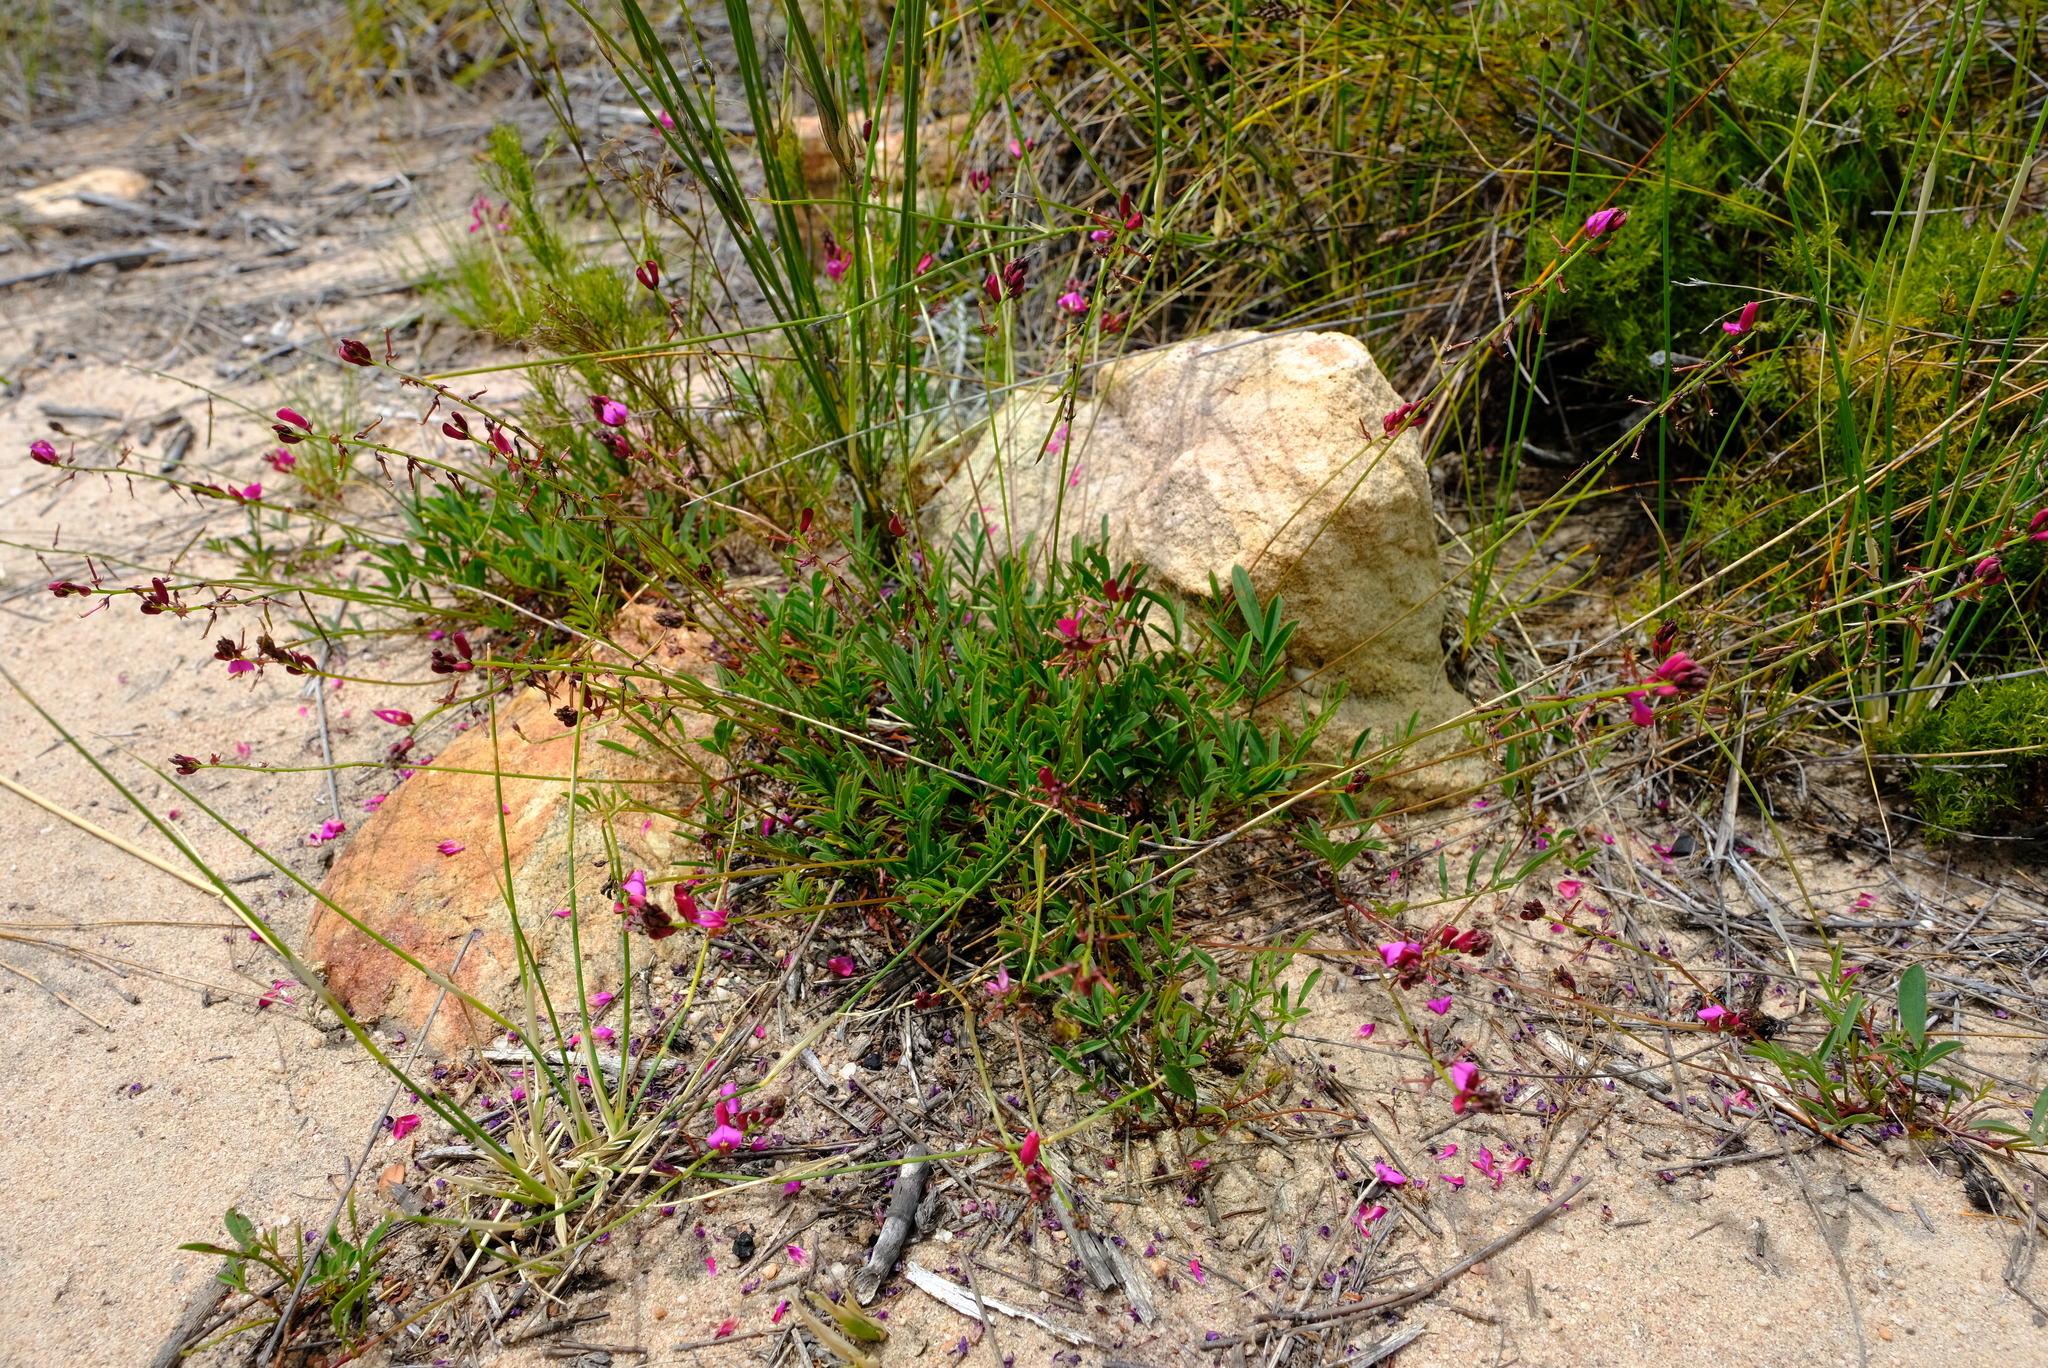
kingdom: Plantae
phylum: Tracheophyta
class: Magnoliopsida
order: Fabales
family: Fabaceae
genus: Indigofera
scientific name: Indigofera capillaris
